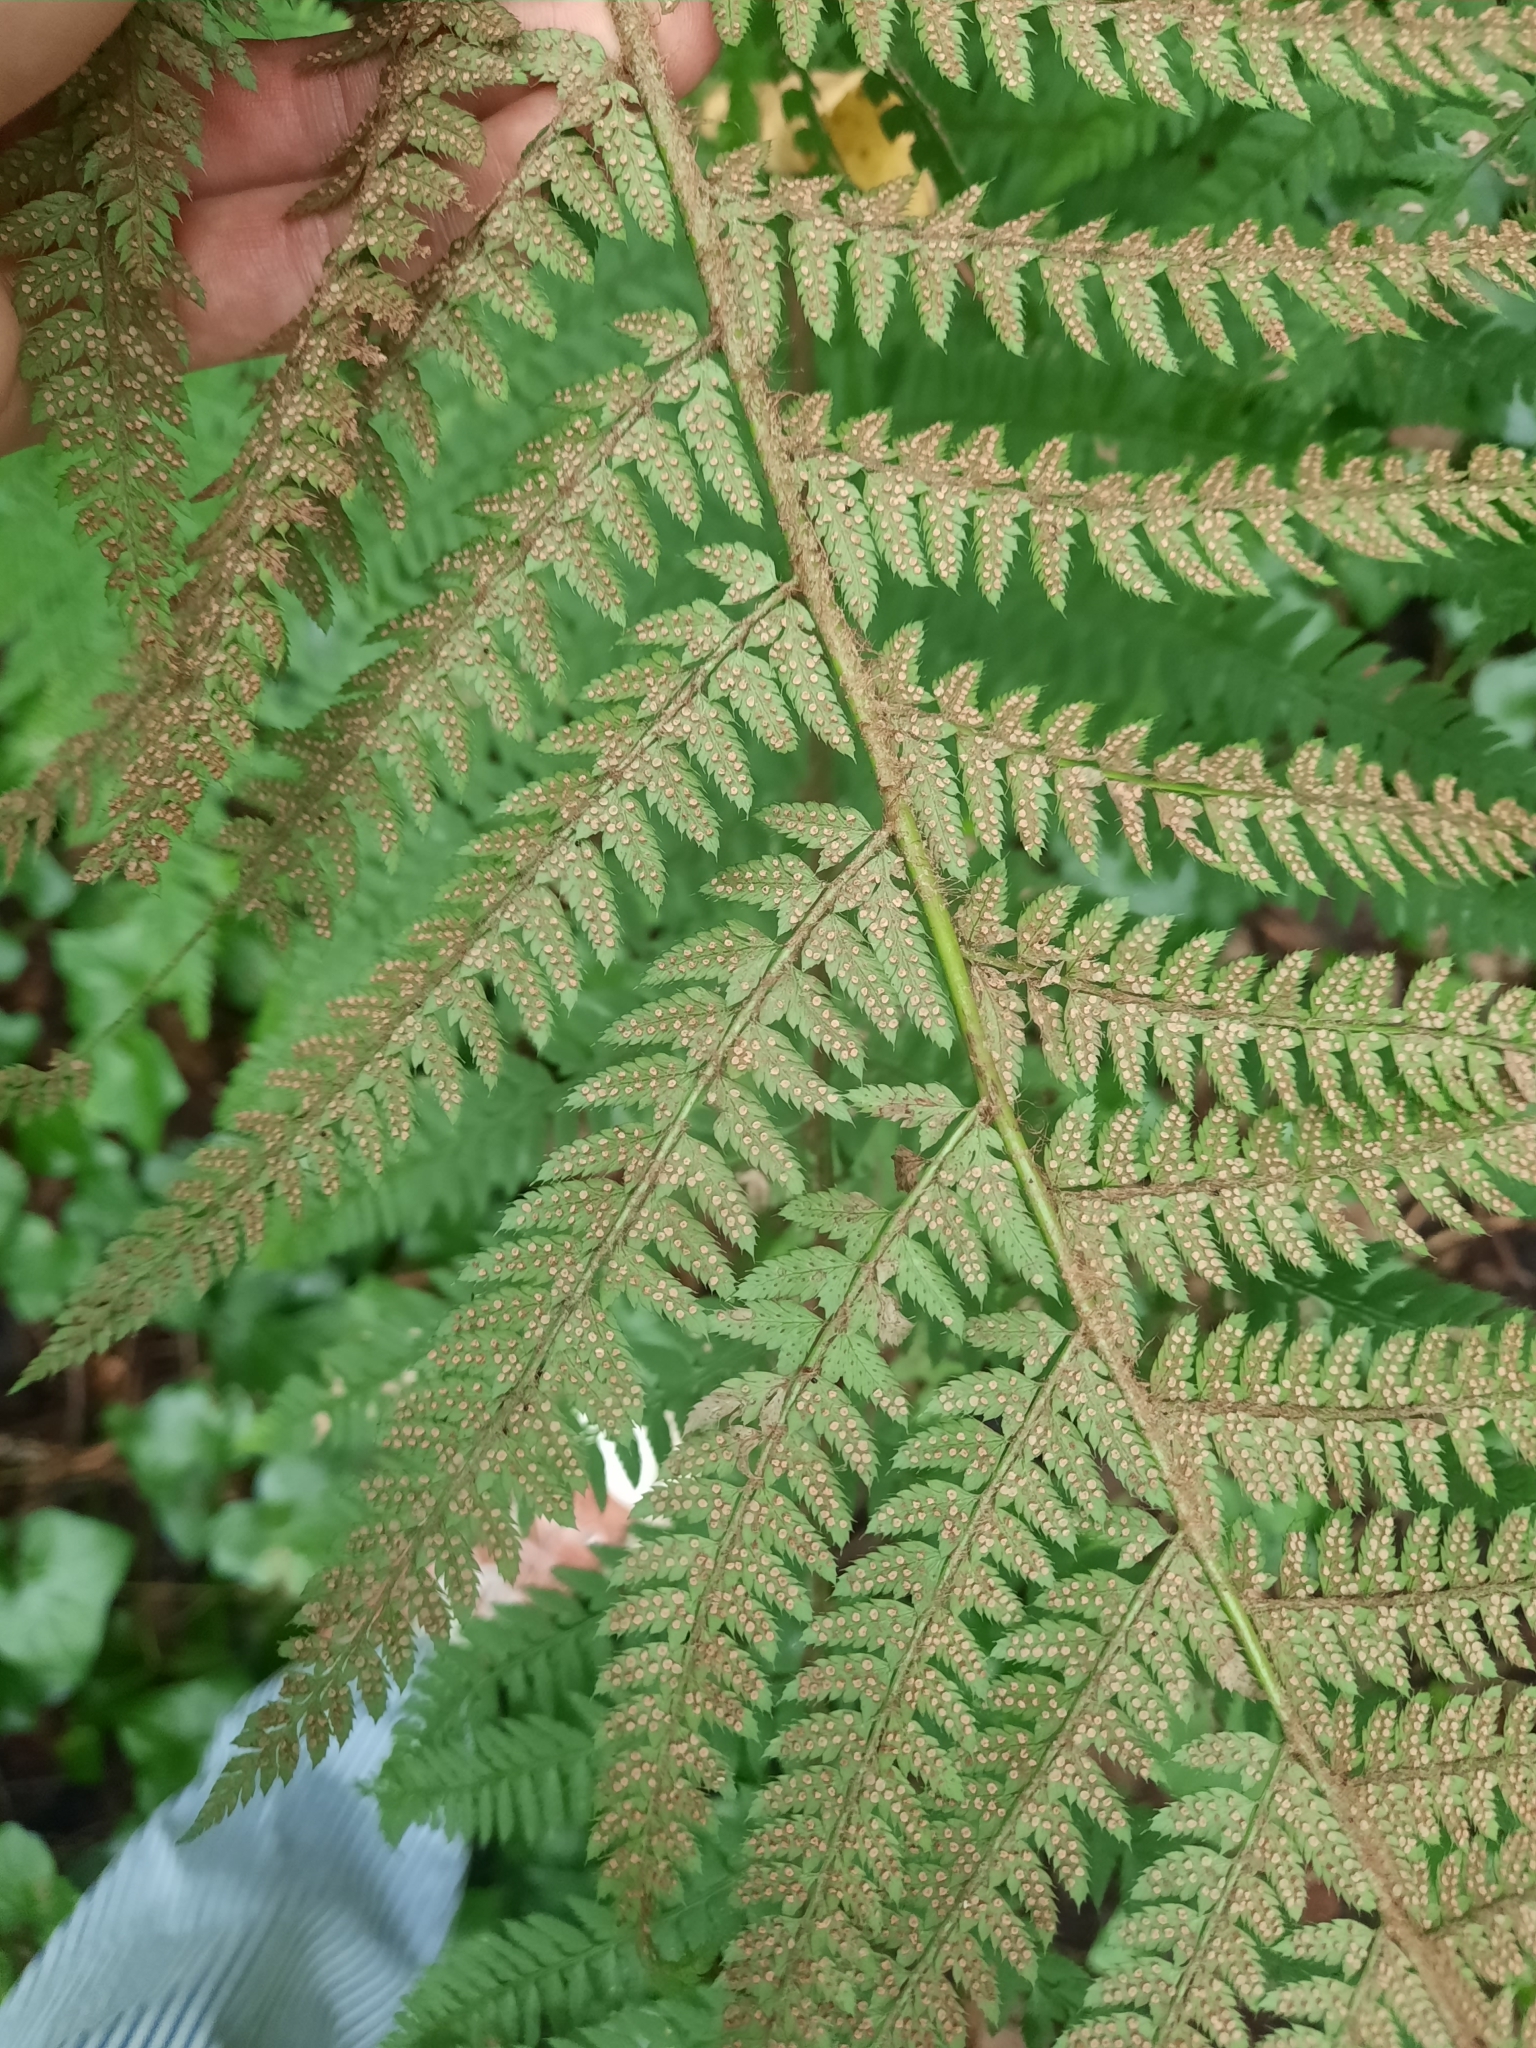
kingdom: Plantae
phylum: Tracheophyta
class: Polypodiopsida
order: Polypodiales
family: Dryopteridaceae
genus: Polystichum
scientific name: Polystichum setiferum
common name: Soft shield-fern
